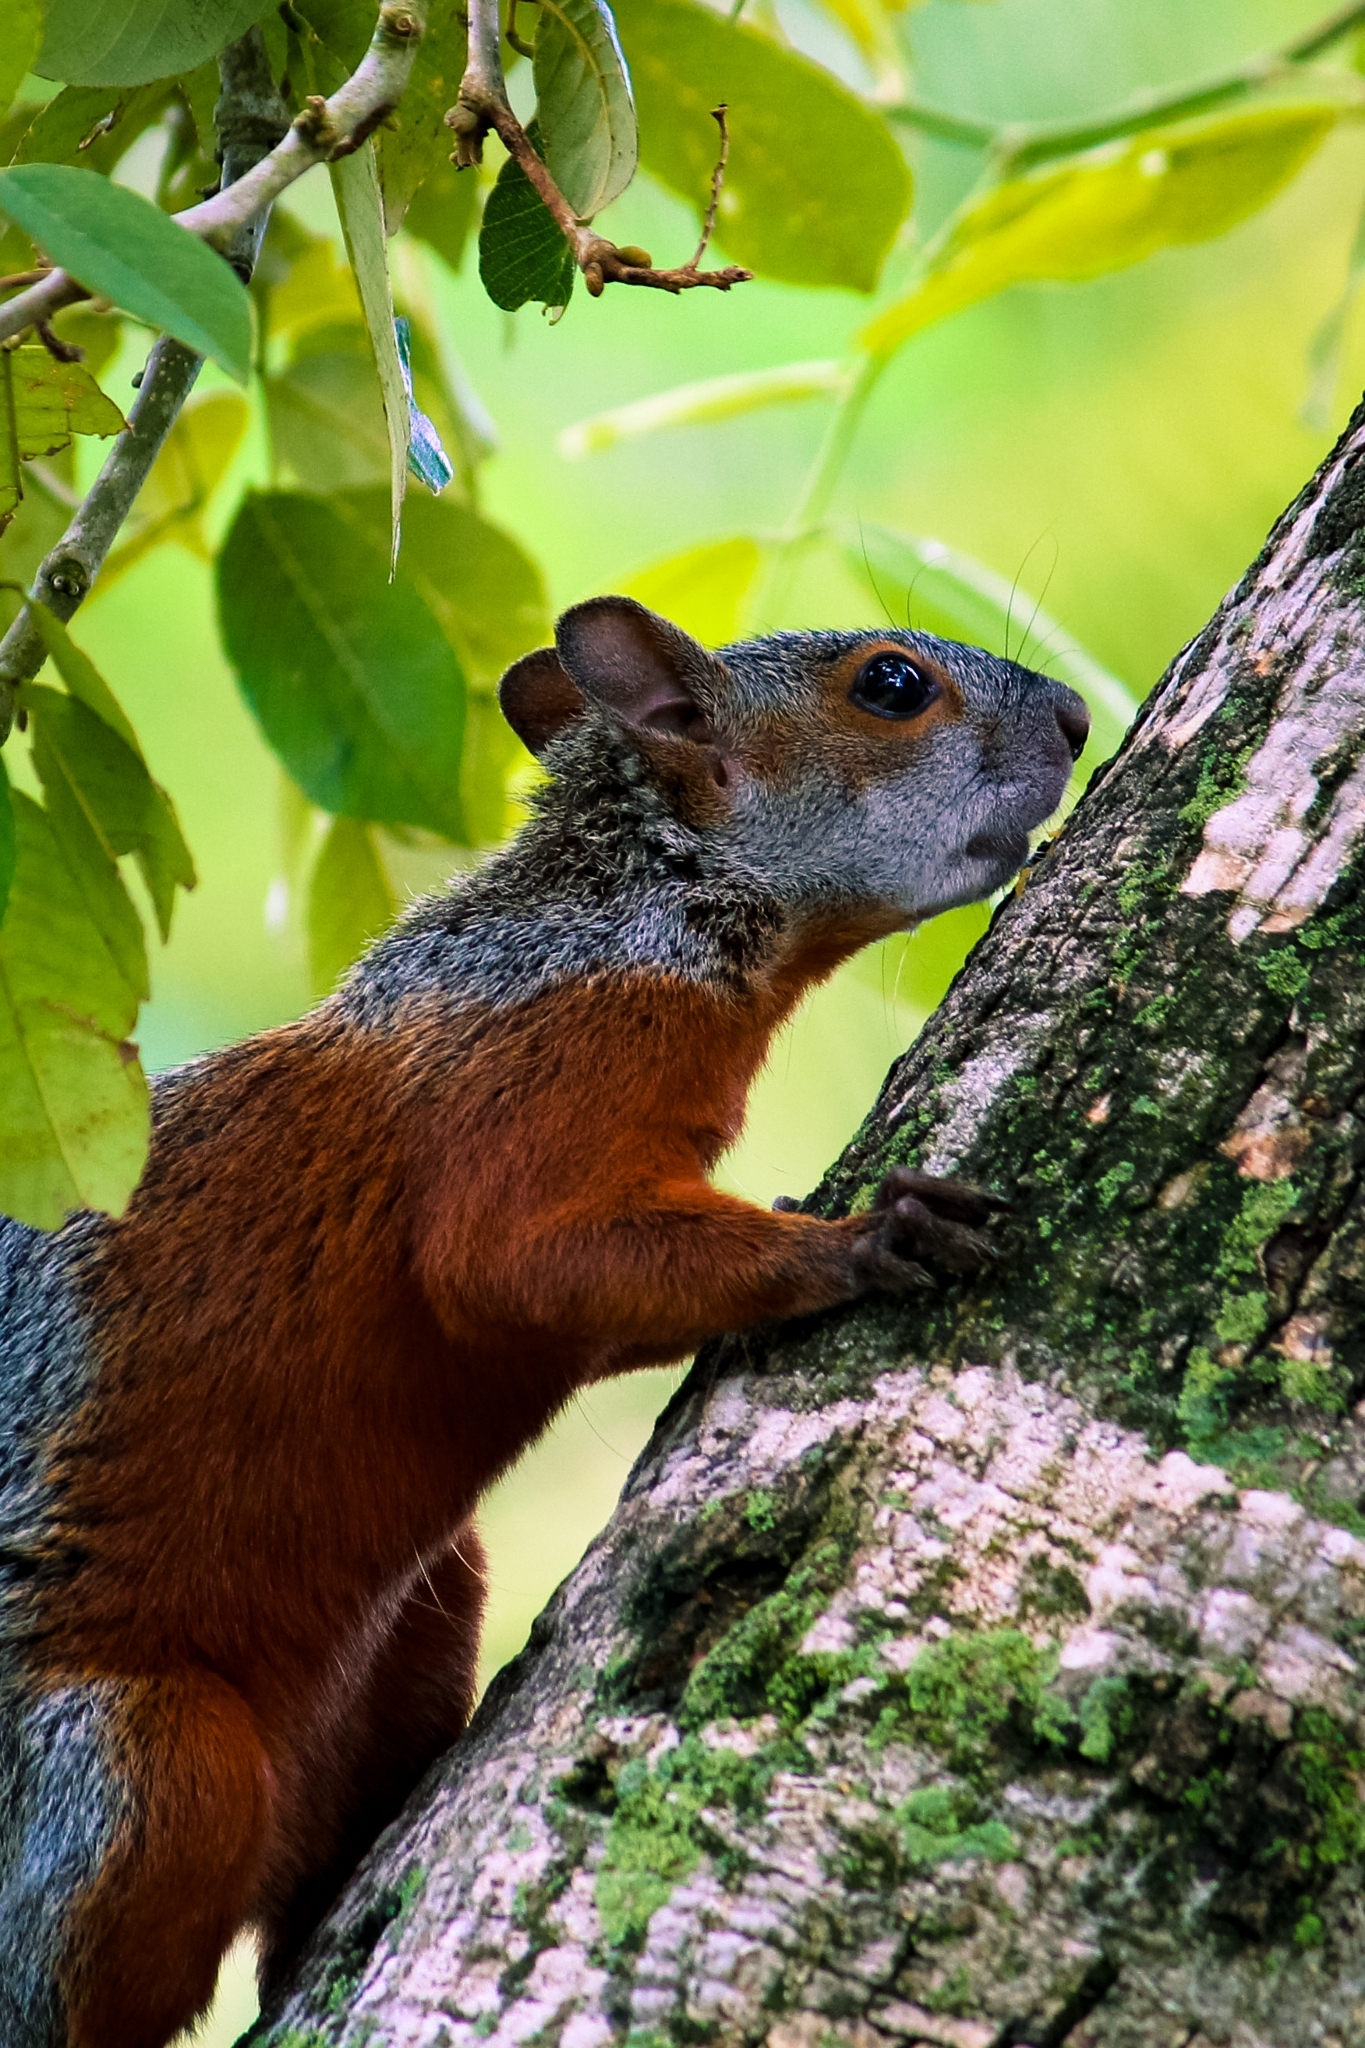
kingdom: Animalia
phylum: Chordata
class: Mammalia
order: Rodentia
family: Sciuridae
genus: Sciurus
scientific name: Sciurus aureogaster
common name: Red-bellied squirrel
